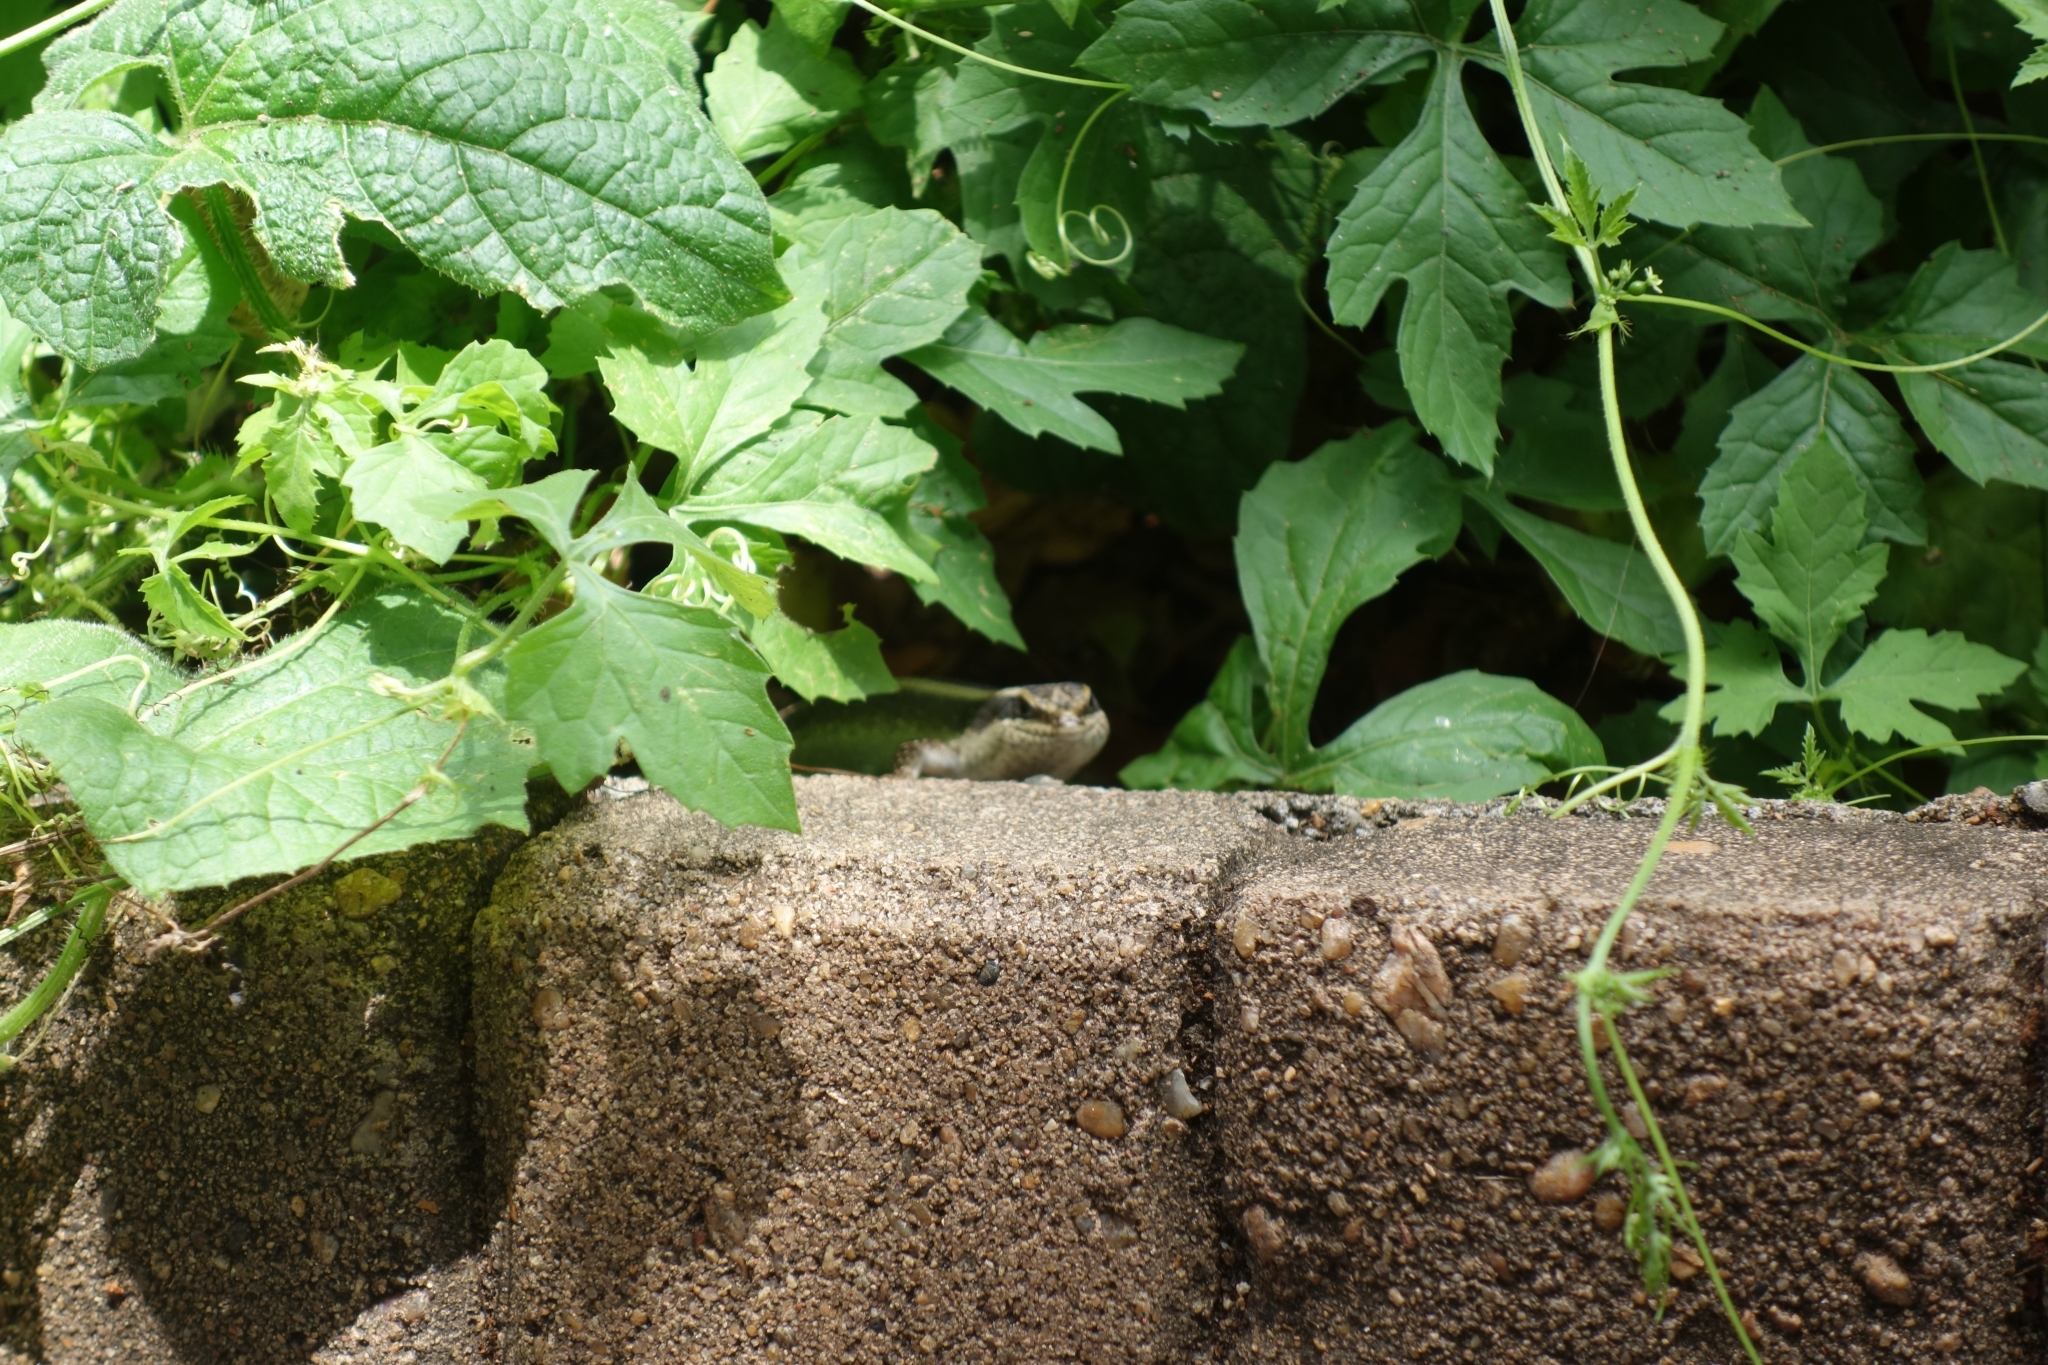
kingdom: Animalia
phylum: Chordata
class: Squamata
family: Scincidae
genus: Trachylepis
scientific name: Trachylepis striata
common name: African striped mabuya
